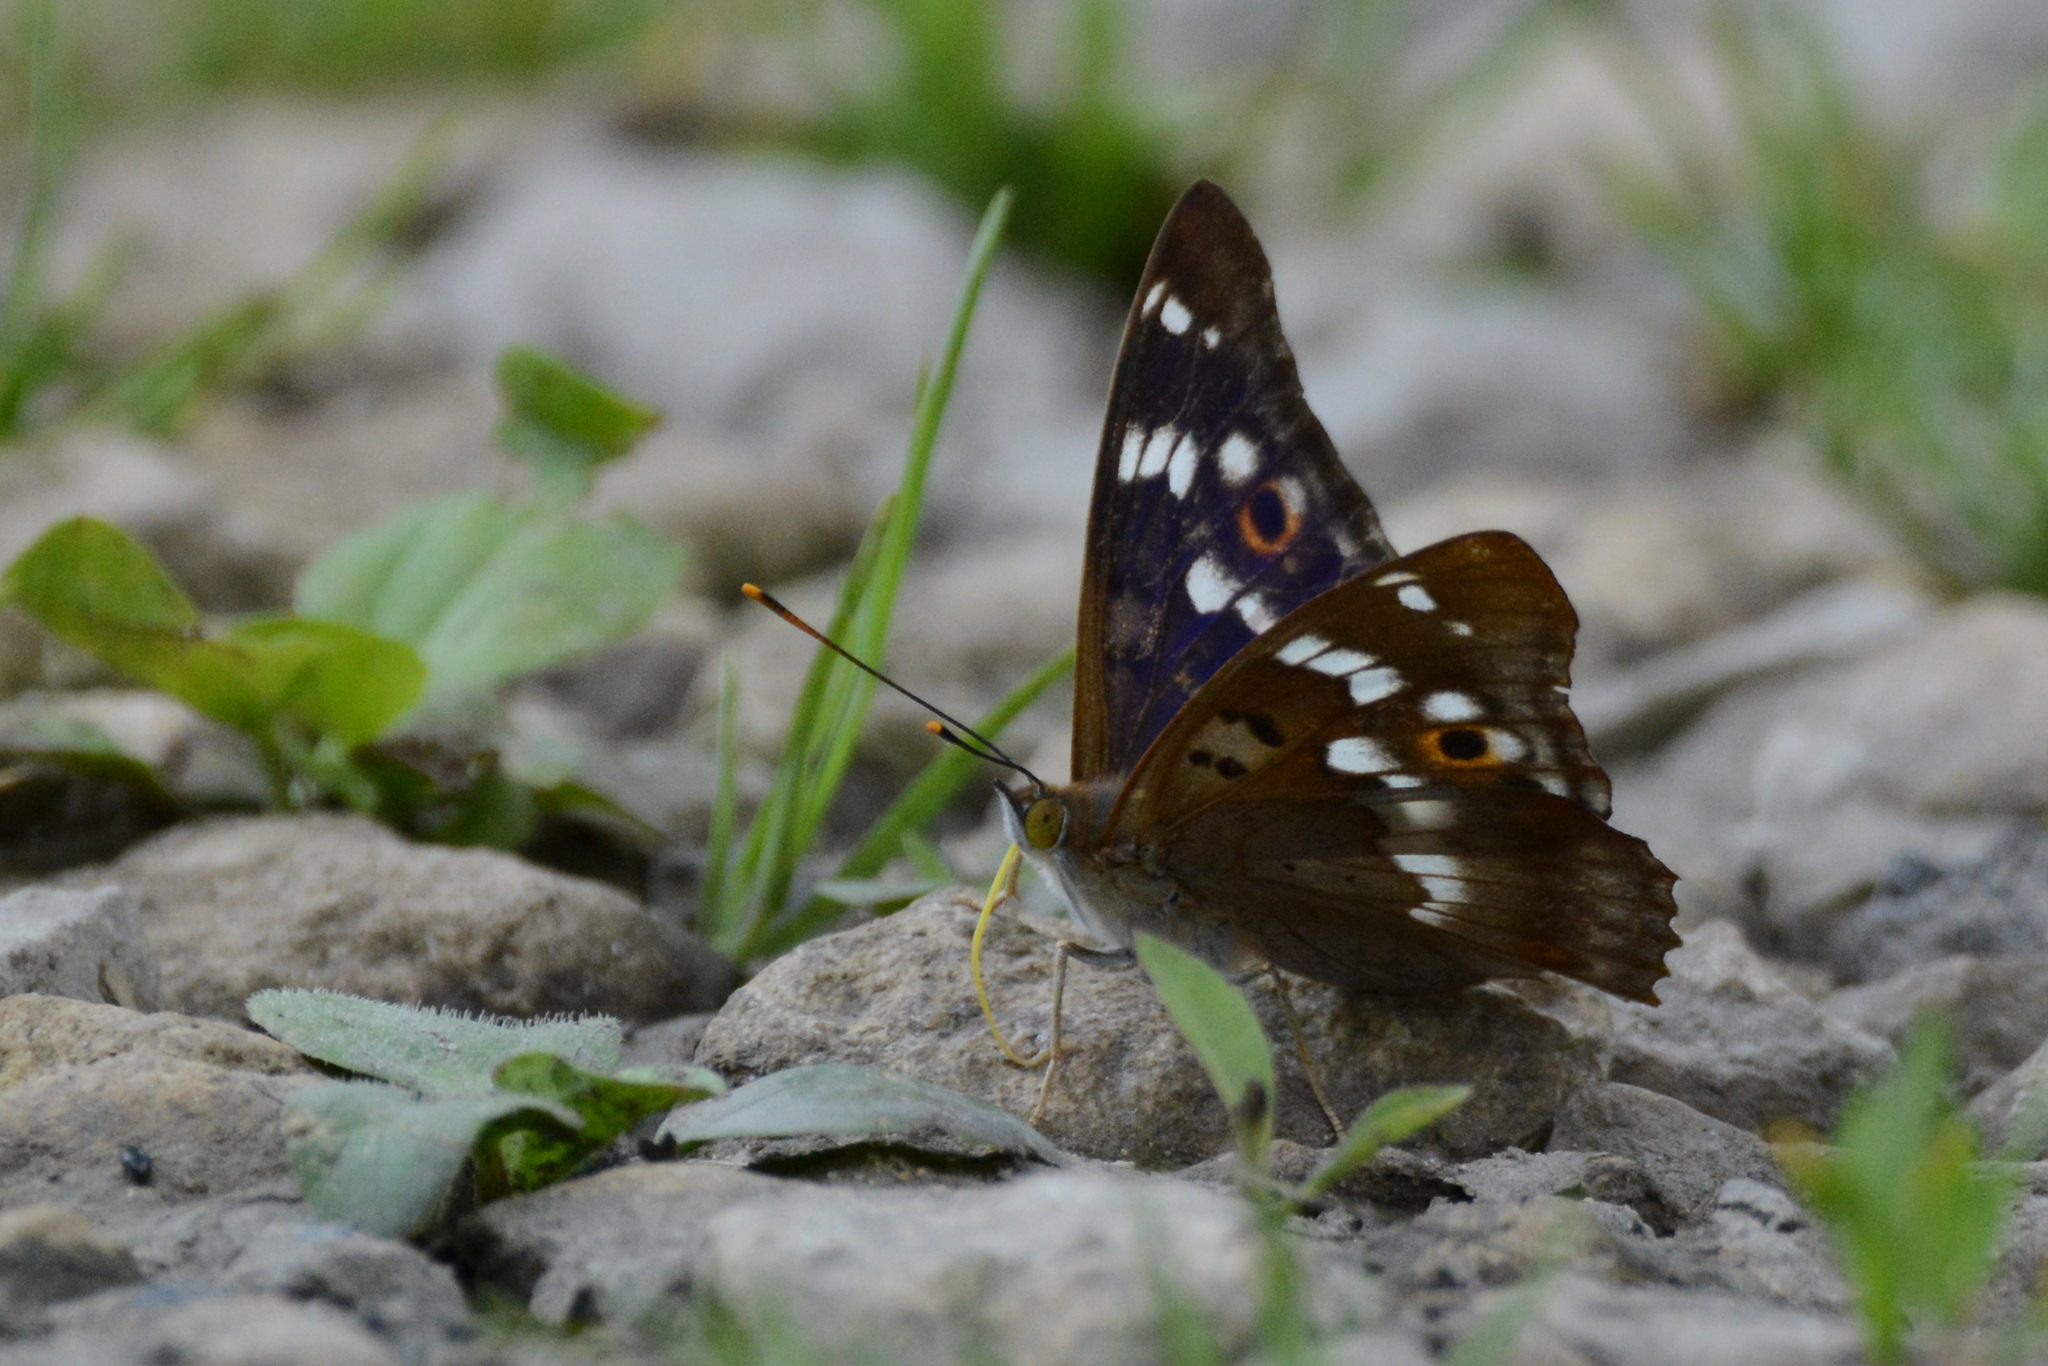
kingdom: Animalia
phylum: Arthropoda
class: Insecta
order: Lepidoptera
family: Nymphalidae
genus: Apatura
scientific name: Apatura ilia
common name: Lesser purple emperor
